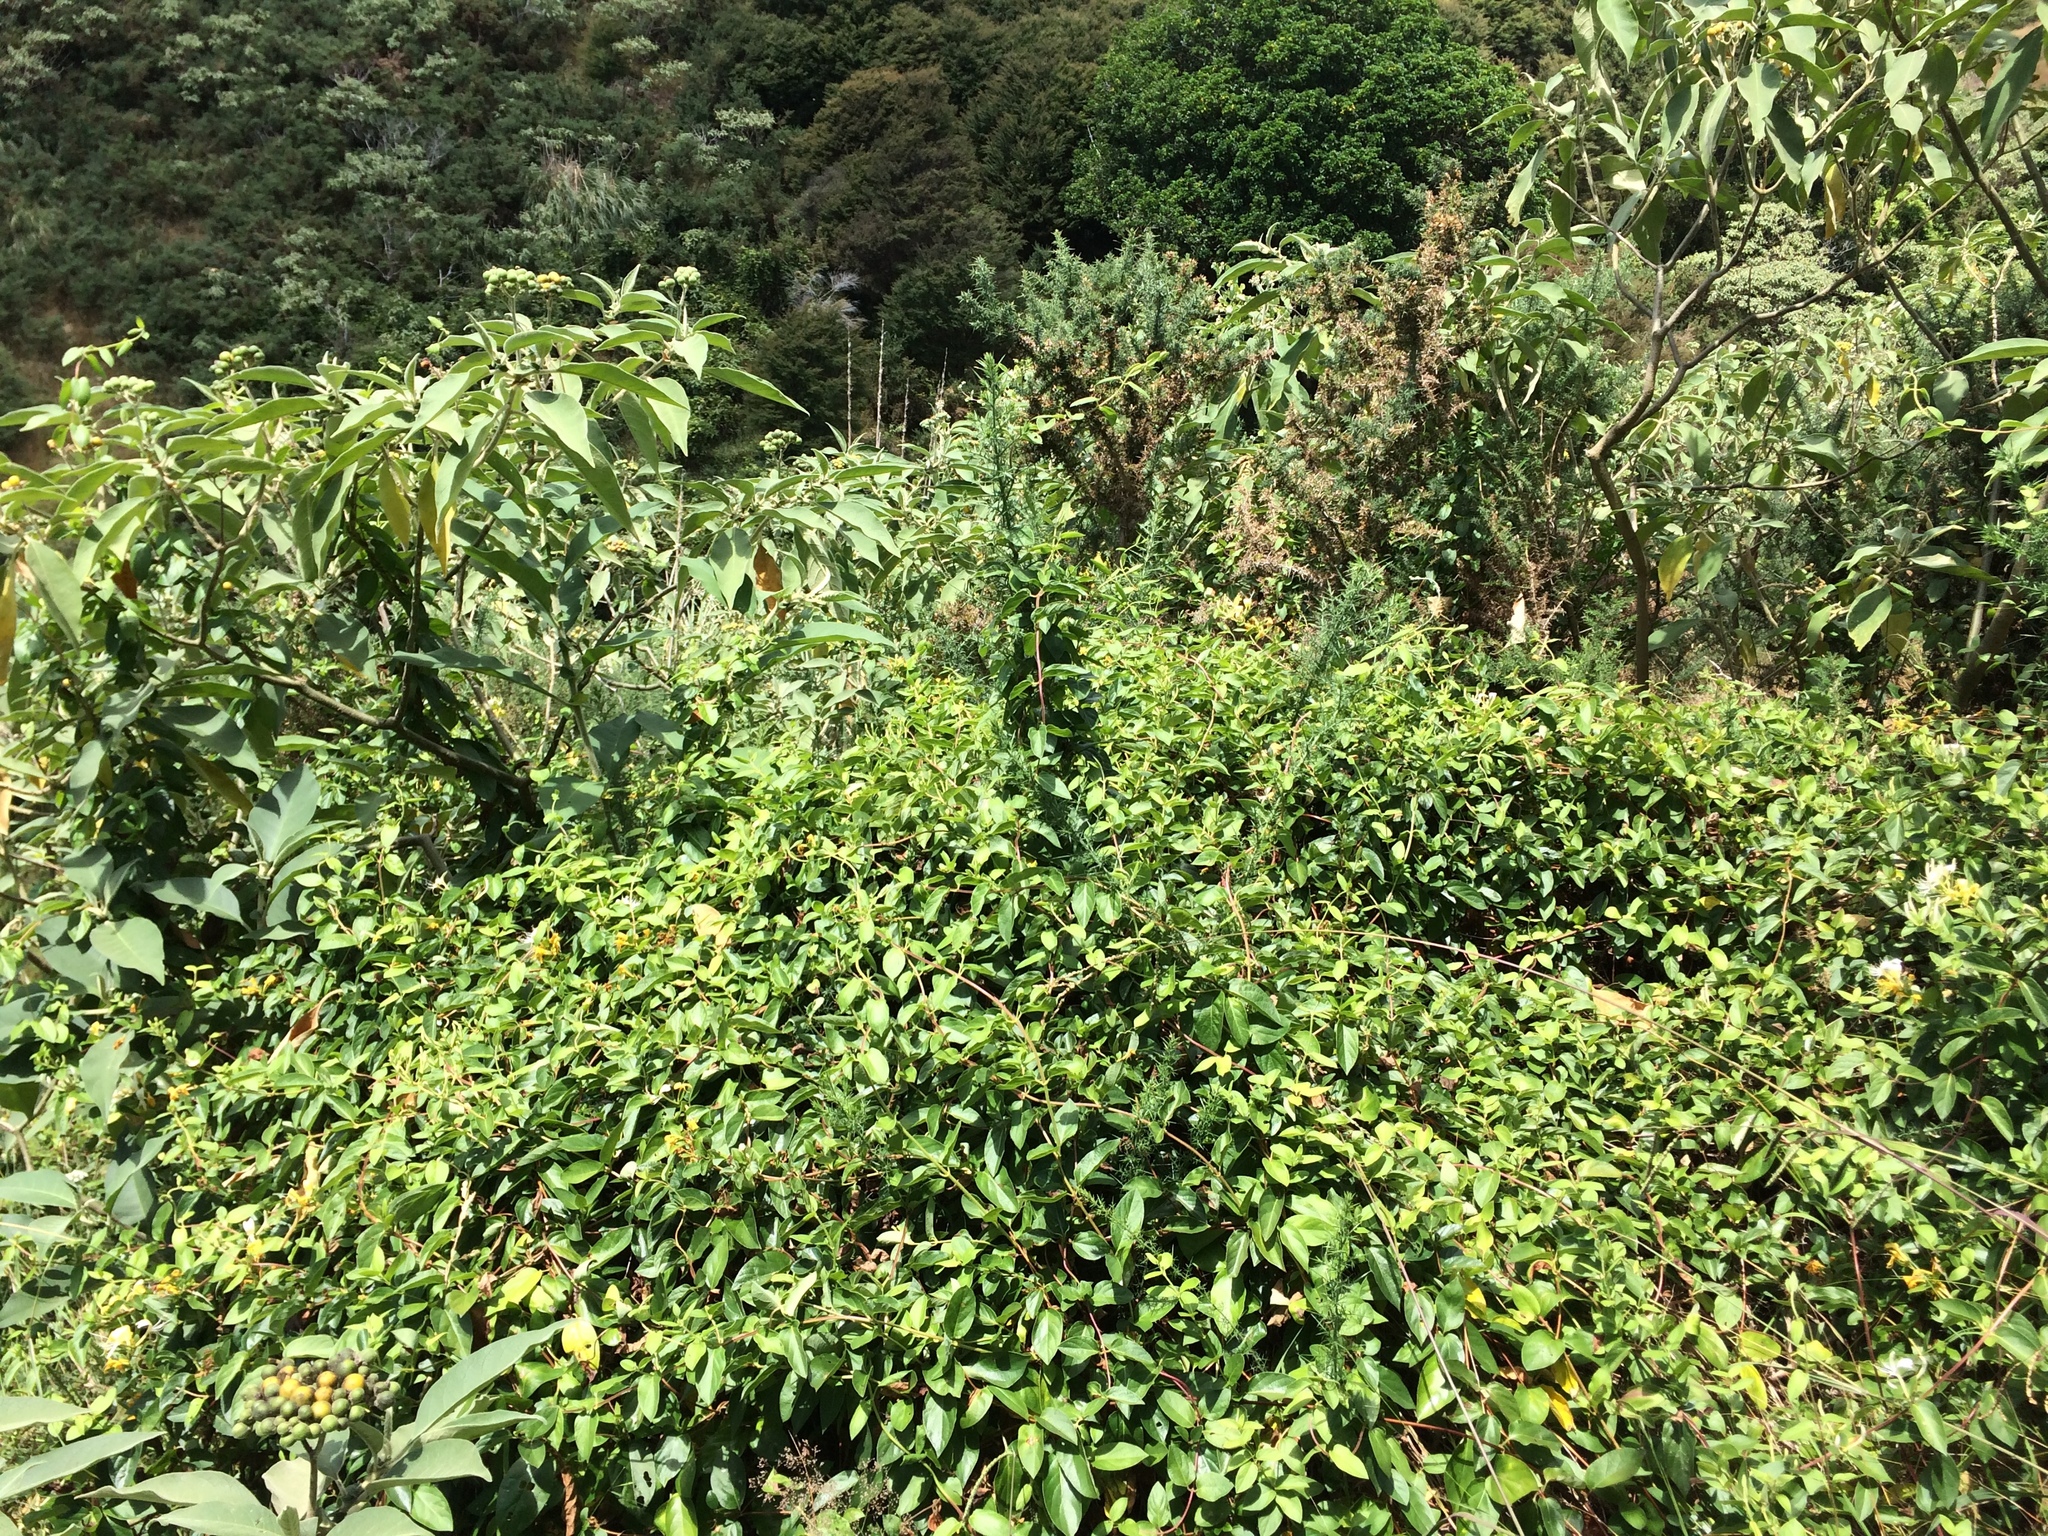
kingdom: Plantae
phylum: Tracheophyta
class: Magnoliopsida
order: Dipsacales
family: Caprifoliaceae
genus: Lonicera
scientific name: Lonicera japonica
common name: Japanese honeysuckle
